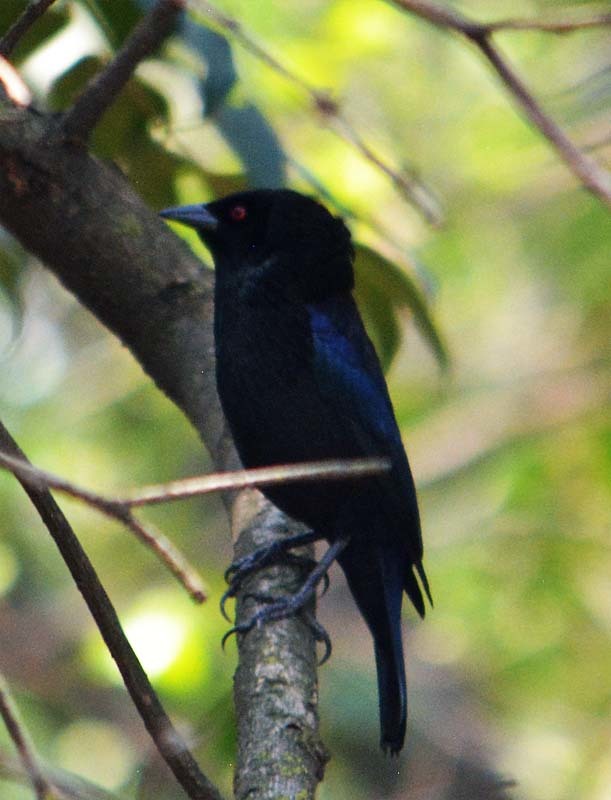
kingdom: Animalia
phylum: Chordata
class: Aves
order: Passeriformes
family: Icteridae
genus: Molothrus
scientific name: Molothrus aeneus
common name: Bronzed cowbird
